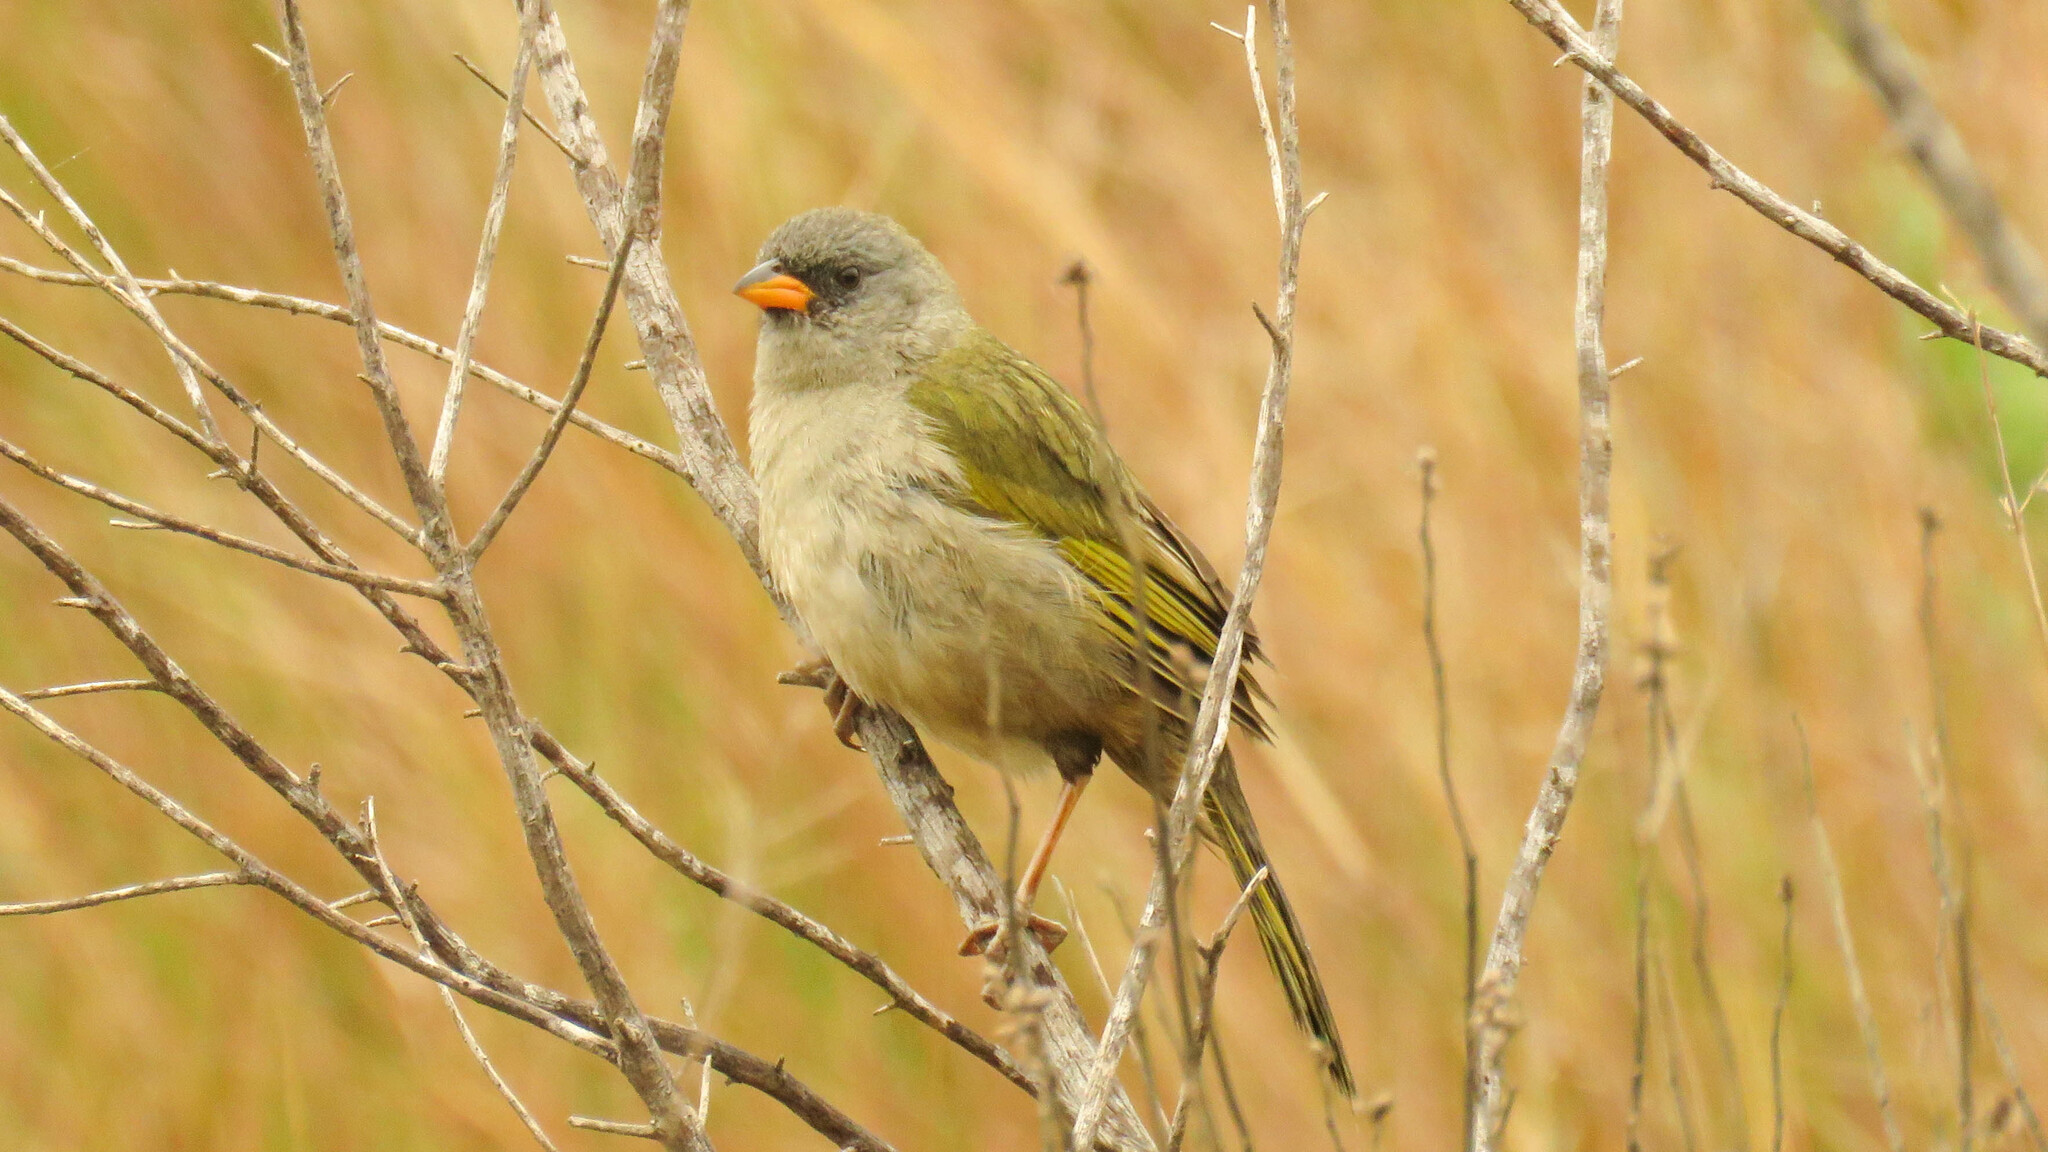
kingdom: Animalia
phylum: Chordata
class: Aves
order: Passeriformes
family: Thraupidae
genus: Embernagra
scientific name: Embernagra platensis
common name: Pampa finch
